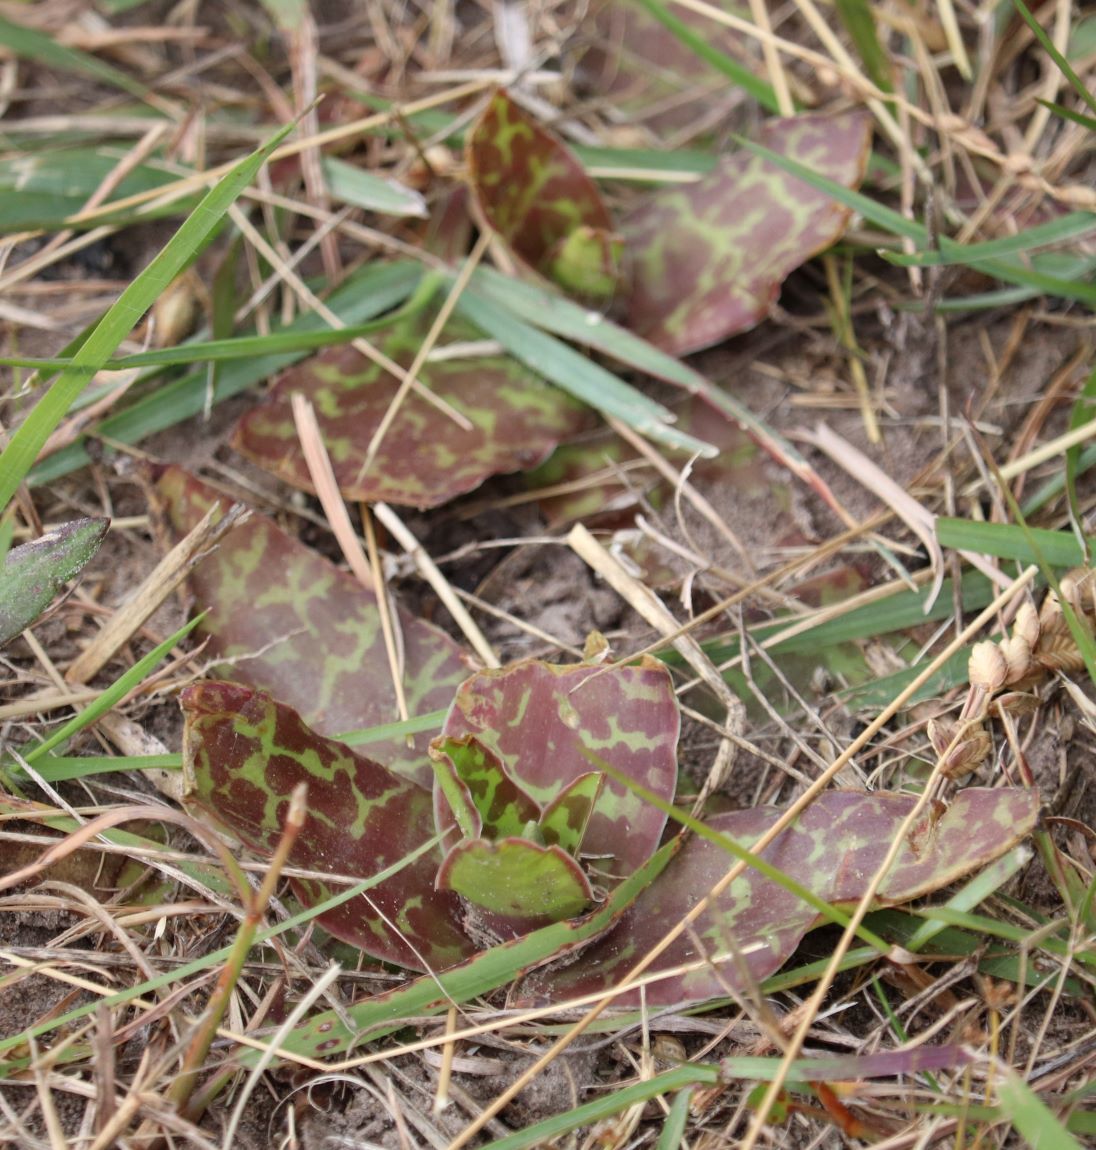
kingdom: Plantae
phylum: Tracheophyta
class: Liliopsida
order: Asparagales
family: Asparagaceae
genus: Ledebouria
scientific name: Ledebouria ensifolia
